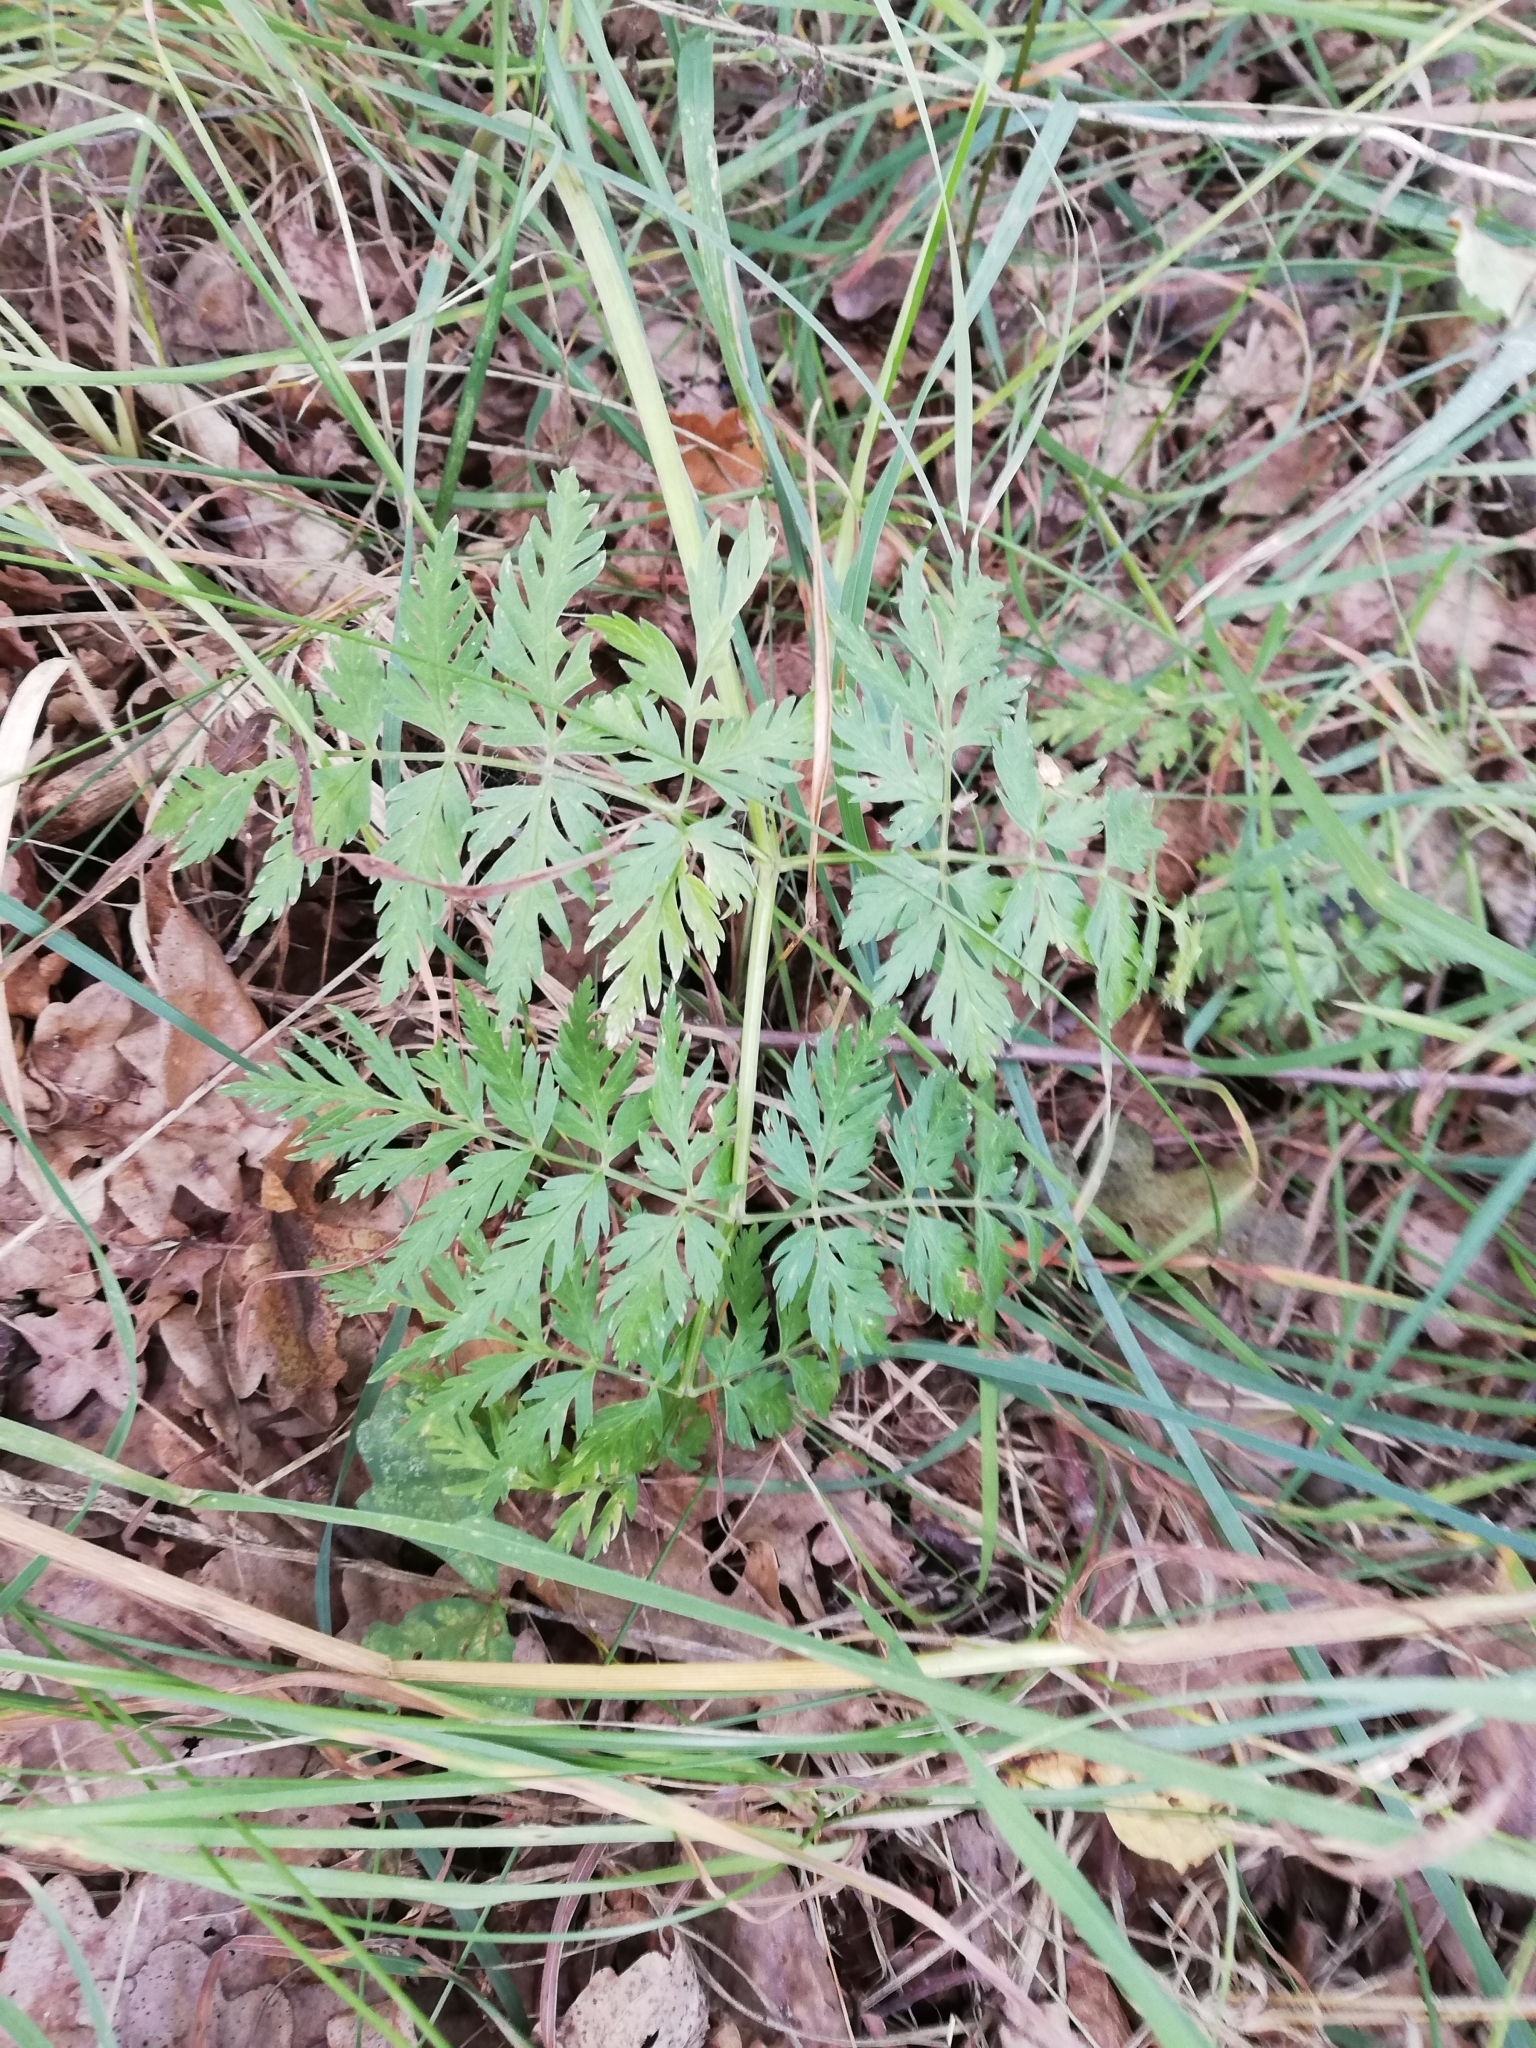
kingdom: Plantae
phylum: Tracheophyta
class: Magnoliopsida
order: Apiales
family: Apiaceae
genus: Anthriscus
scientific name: Anthriscus sylvestris
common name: Cow parsley
